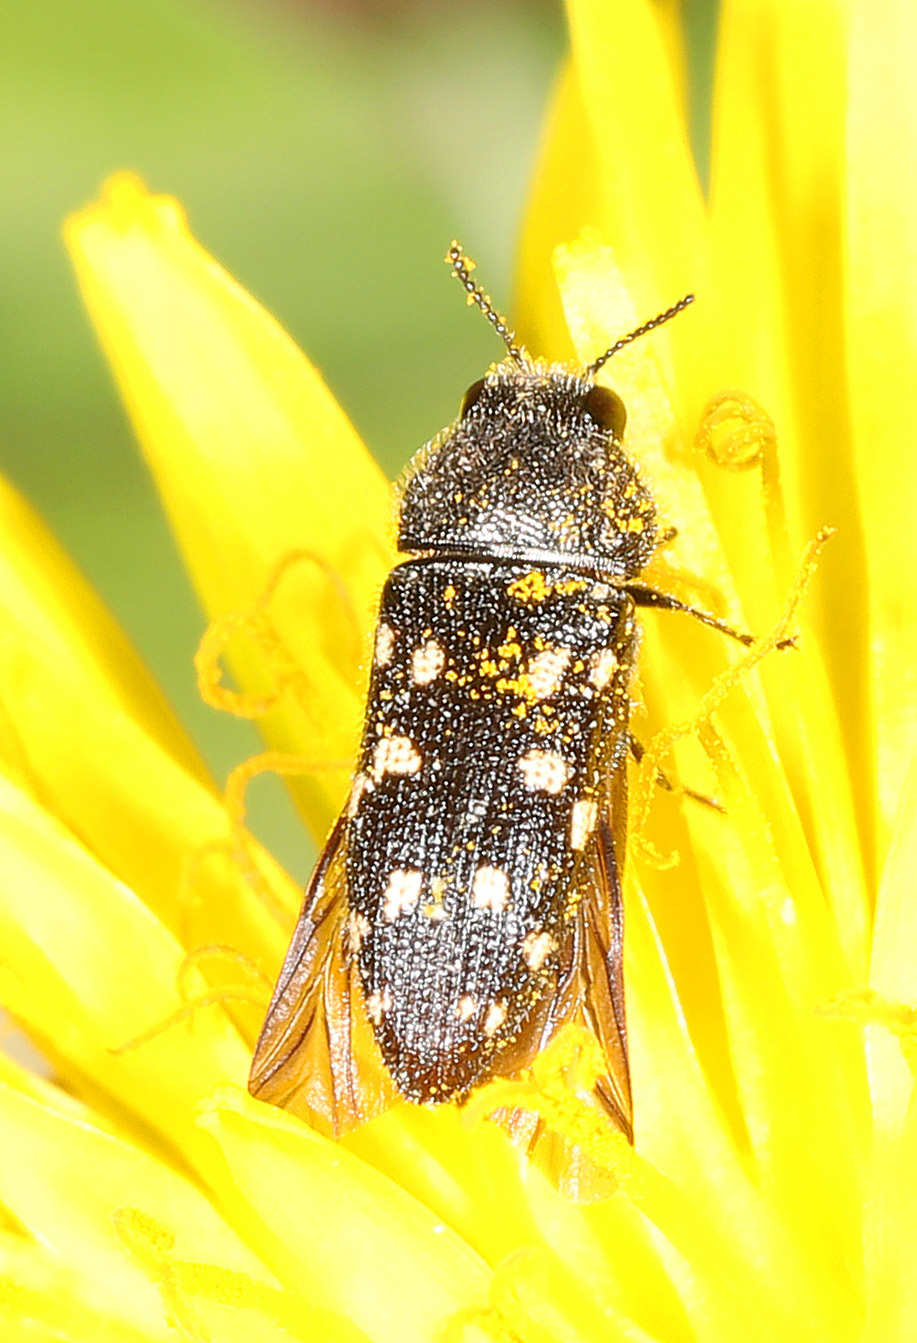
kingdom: Animalia
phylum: Arthropoda
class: Insecta
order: Coleoptera
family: Buprestidae
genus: Acmaeodera
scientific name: Acmaeodera tubulus
